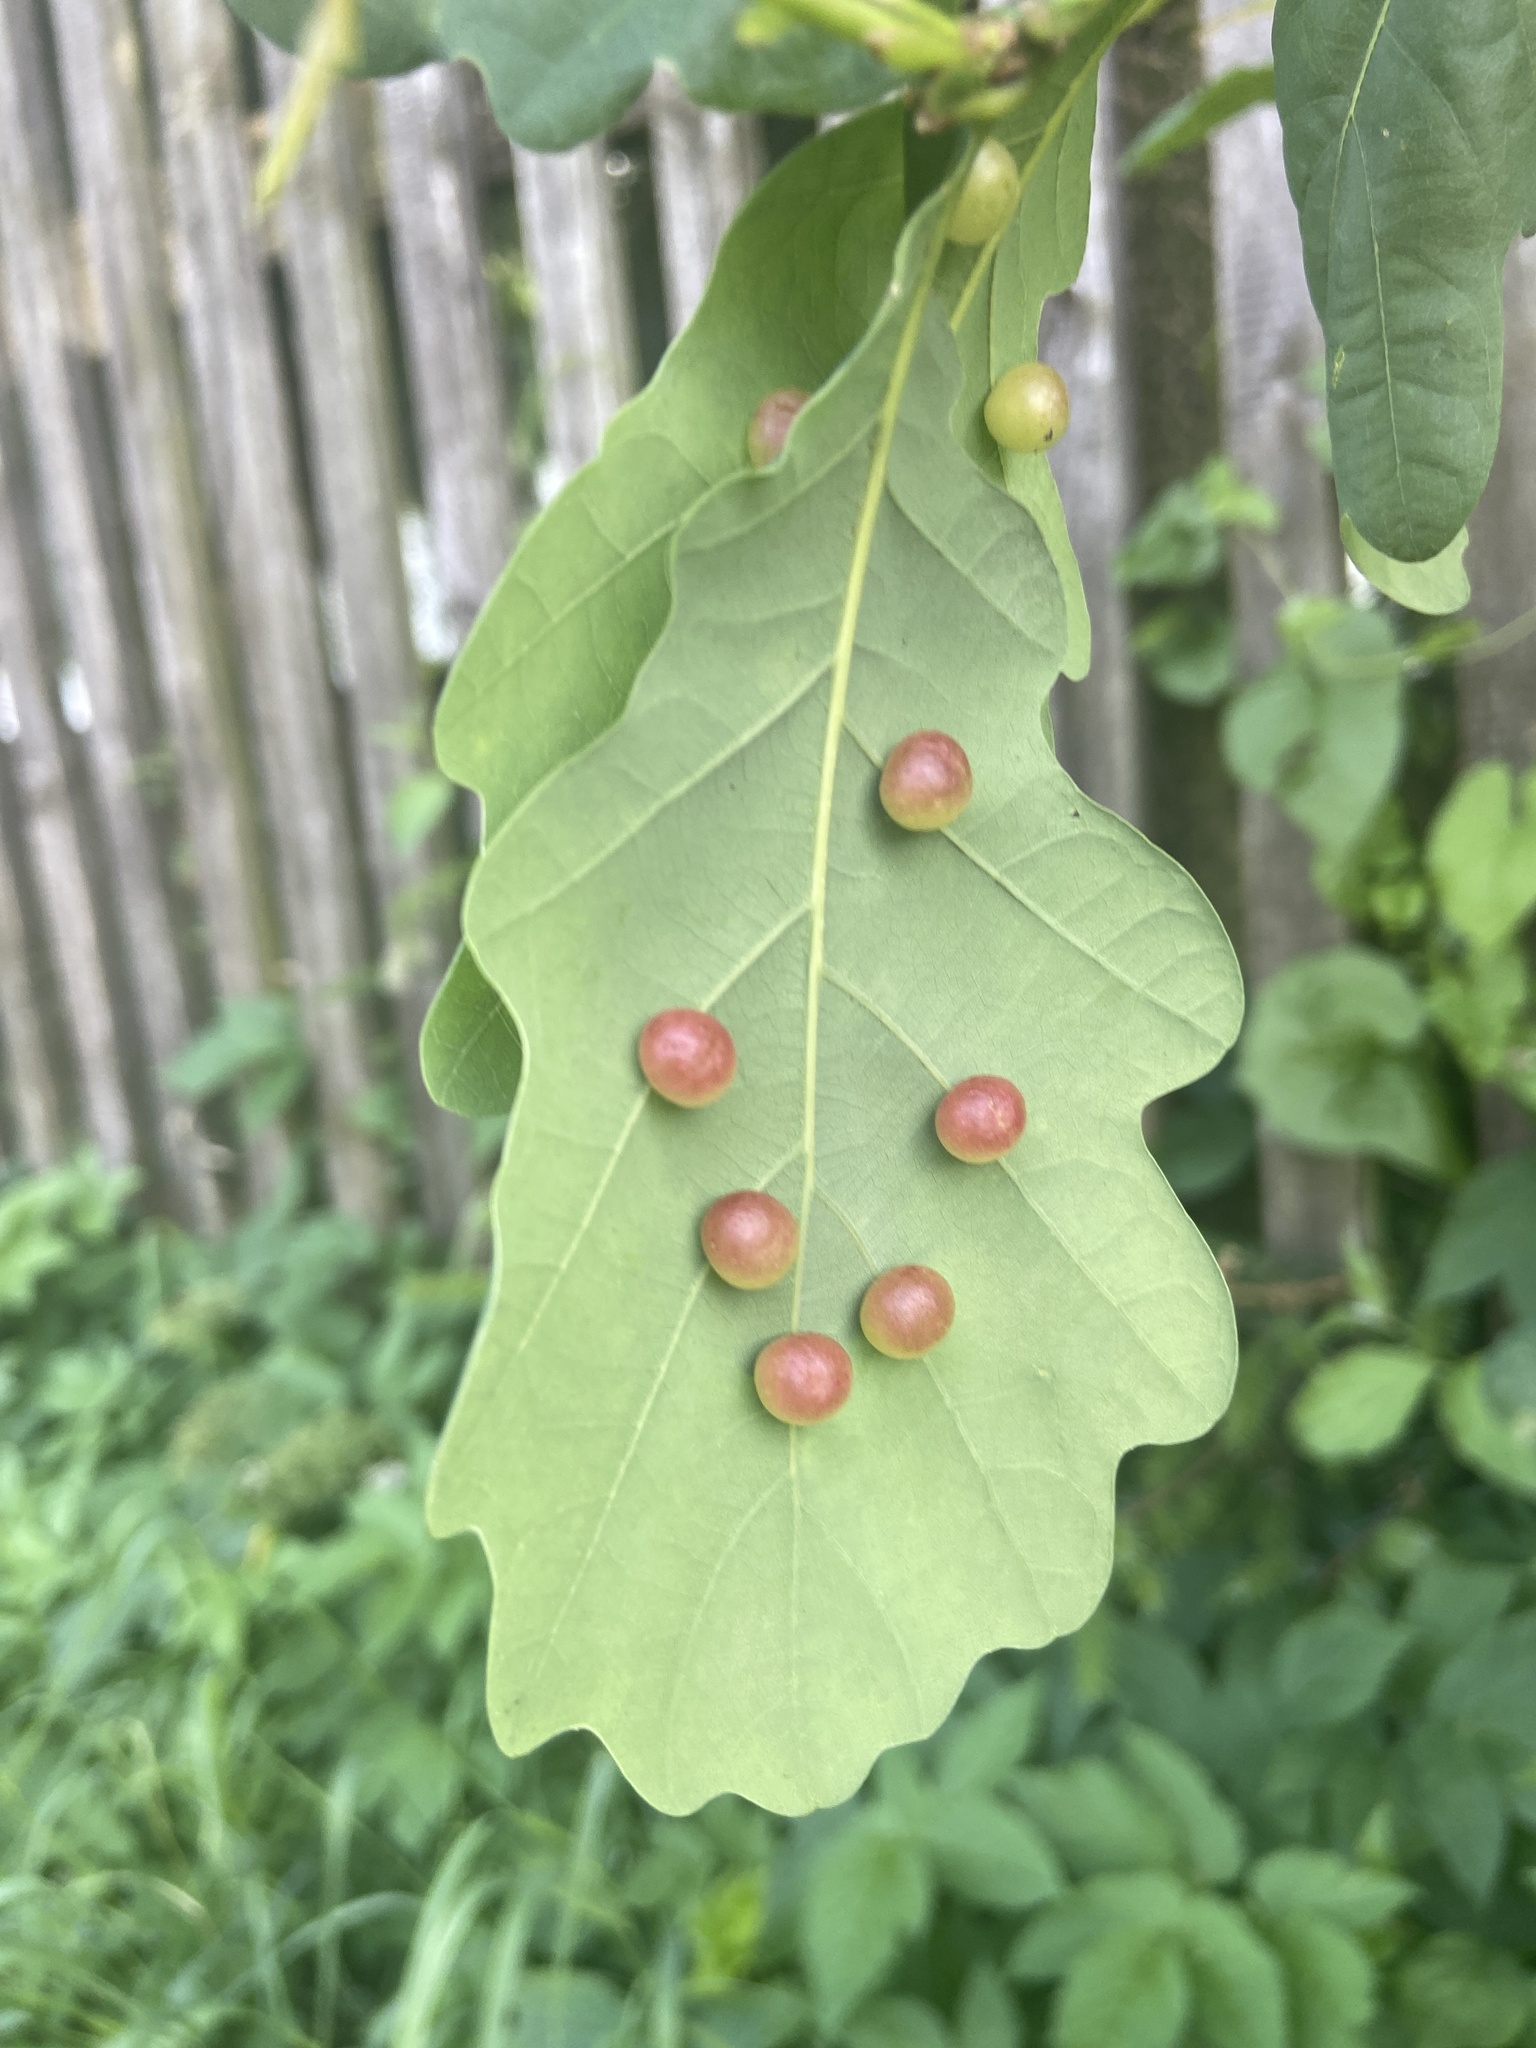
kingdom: Animalia
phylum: Arthropoda
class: Insecta
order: Hymenoptera
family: Cynipidae
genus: Cynips
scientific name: Cynips divisa
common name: Red currant gall
